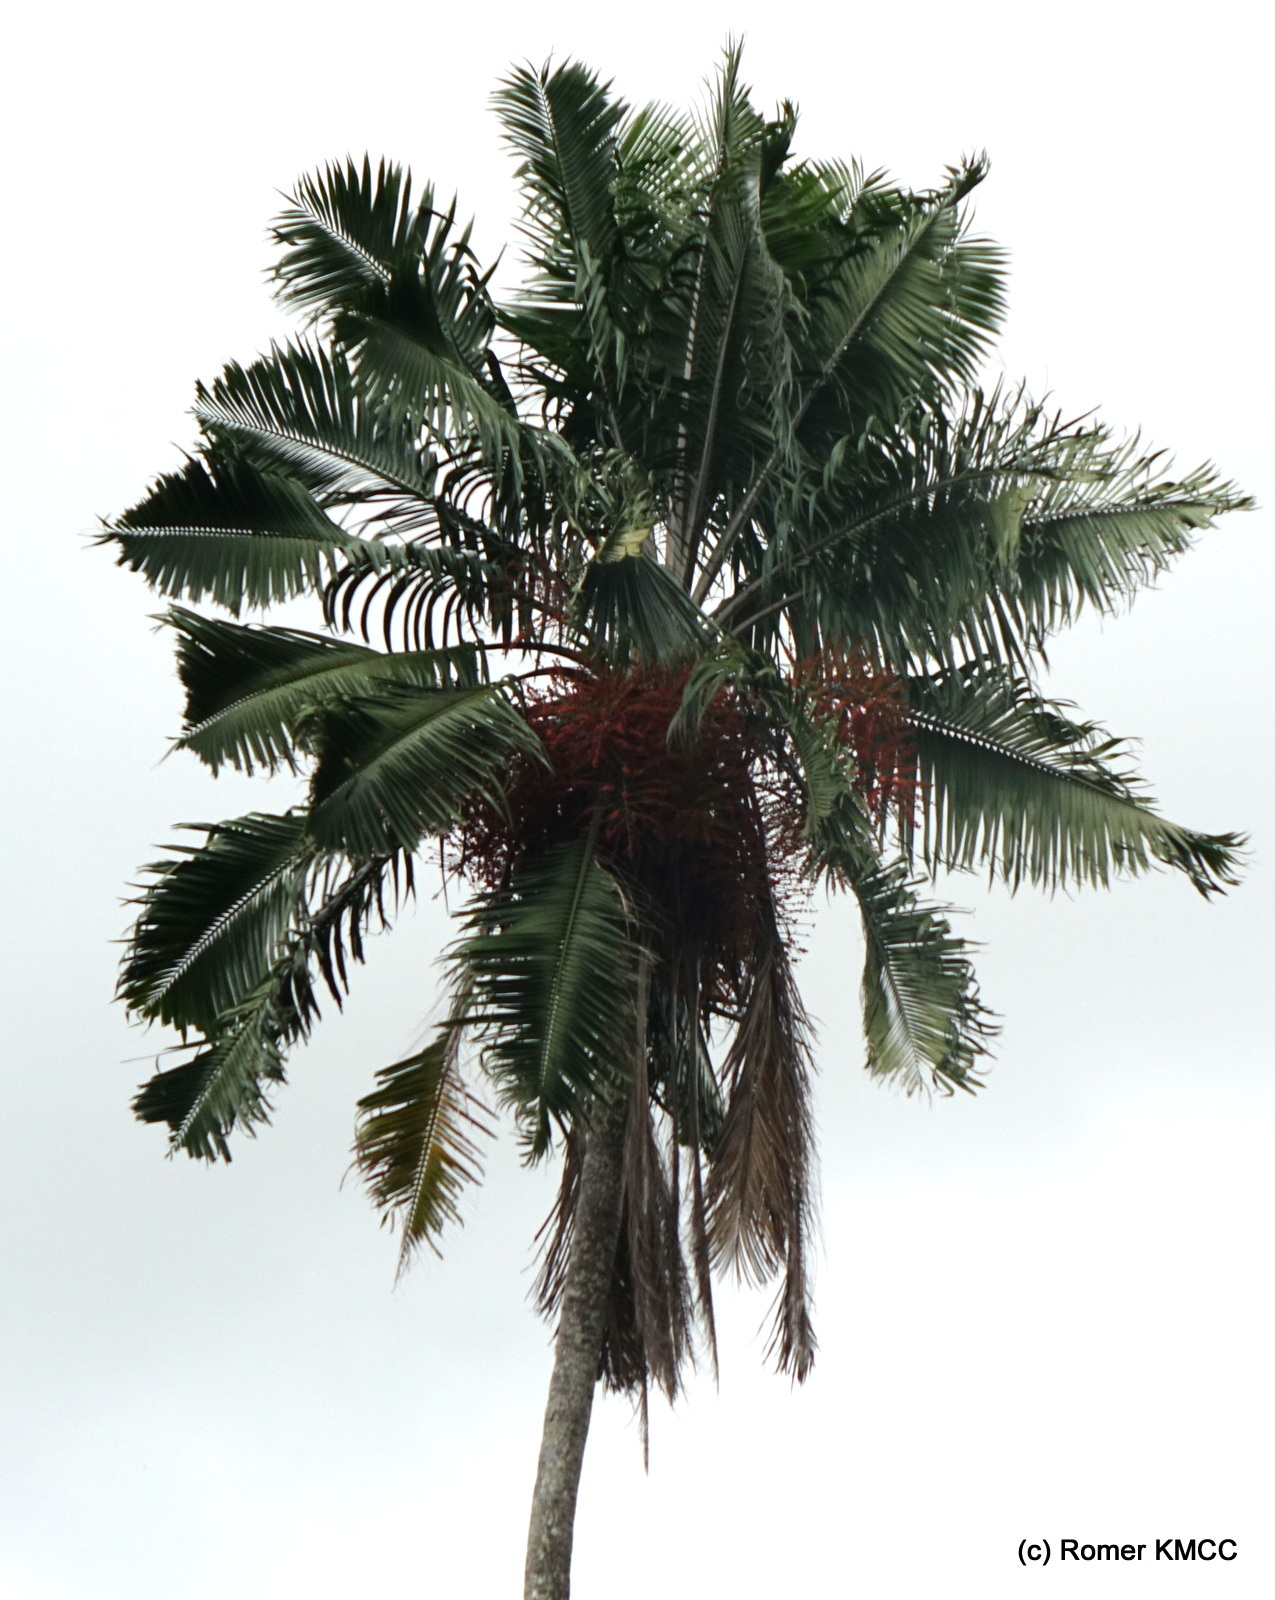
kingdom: Plantae
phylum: Tracheophyta
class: Liliopsida
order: Arecales
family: Arecaceae
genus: Ravenea
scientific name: Ravenea madagascariensis
